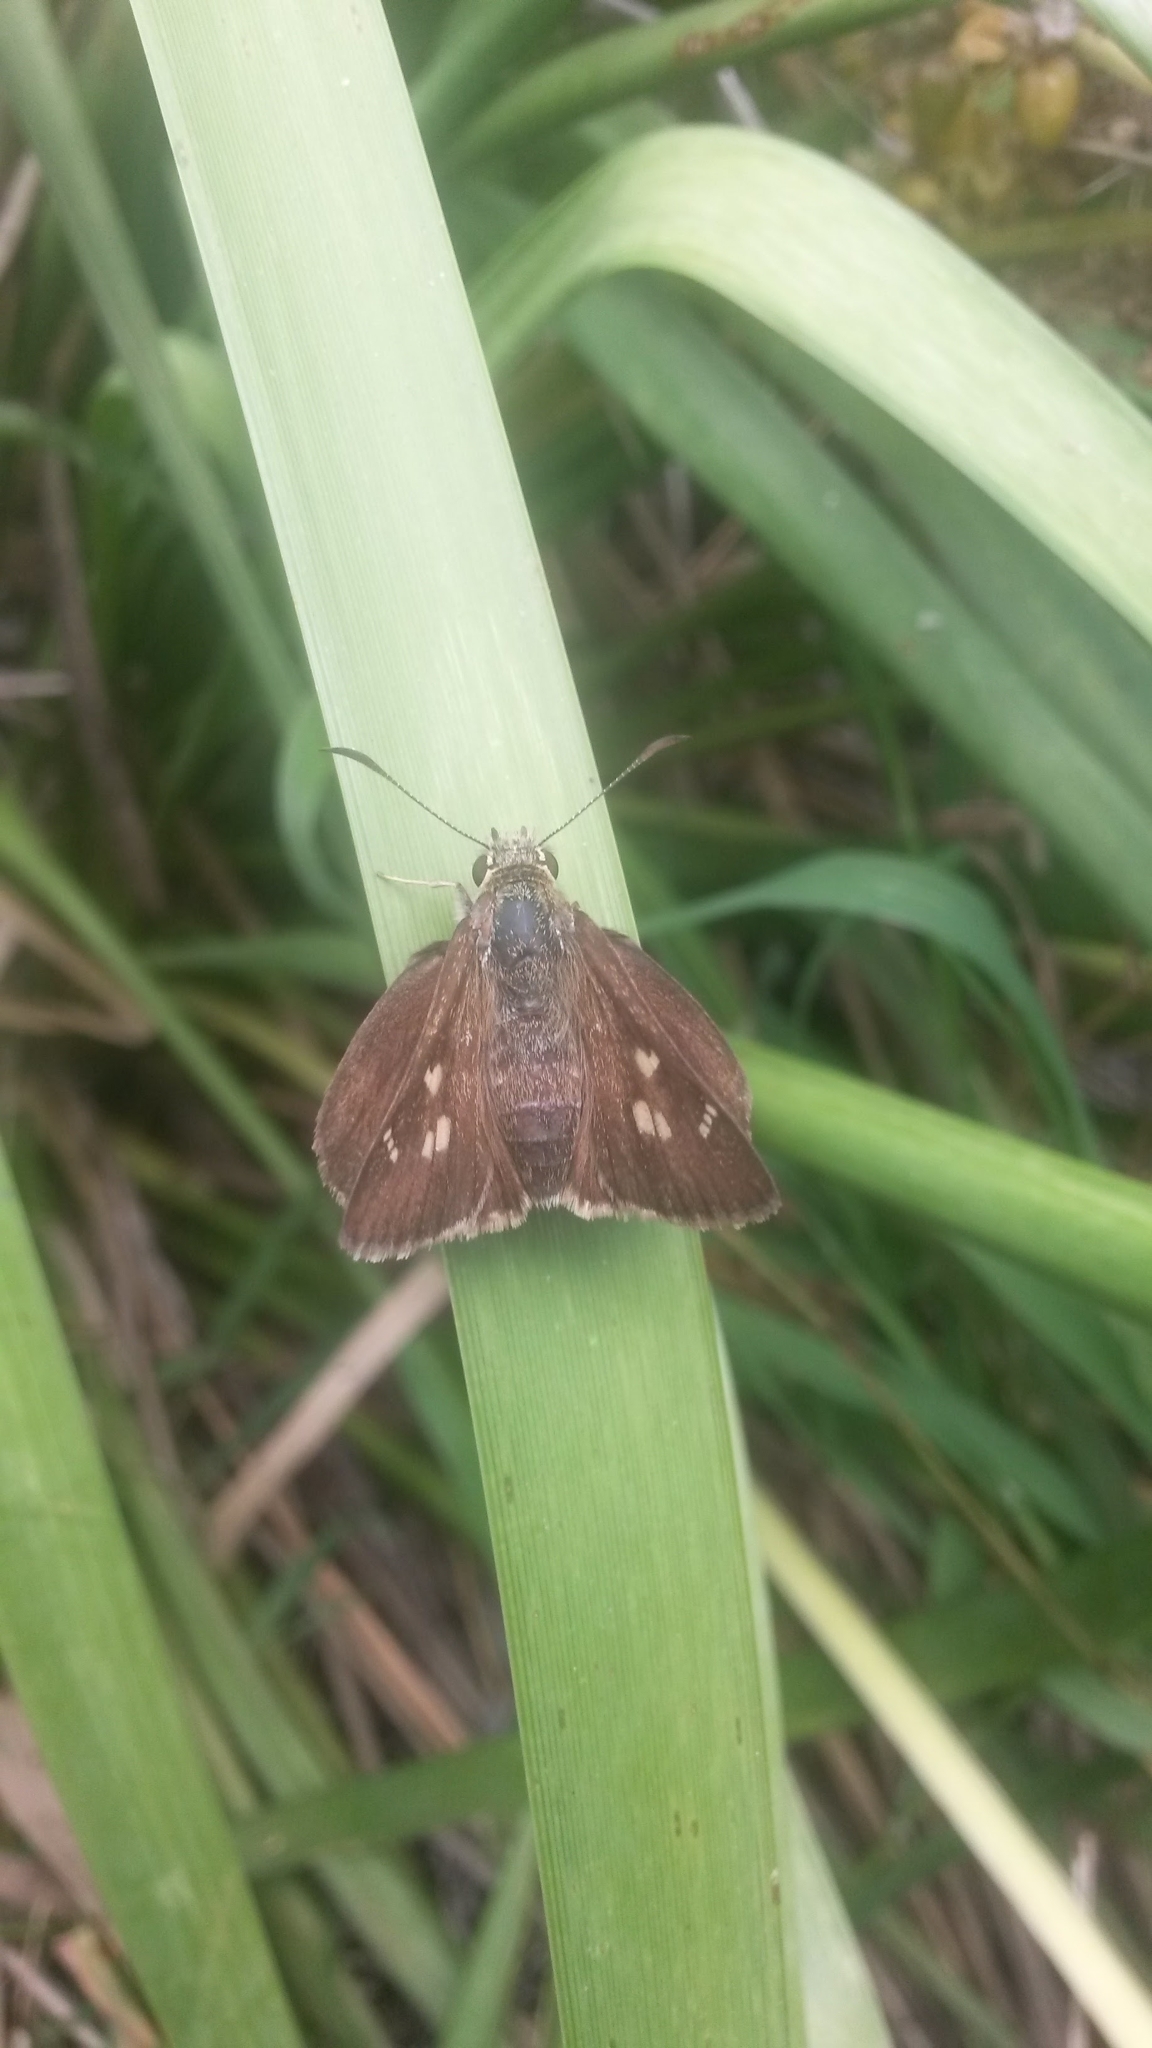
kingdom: Animalia
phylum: Arthropoda
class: Insecta
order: Lepidoptera
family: Hesperiidae
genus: Toxidia
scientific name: Toxidia
